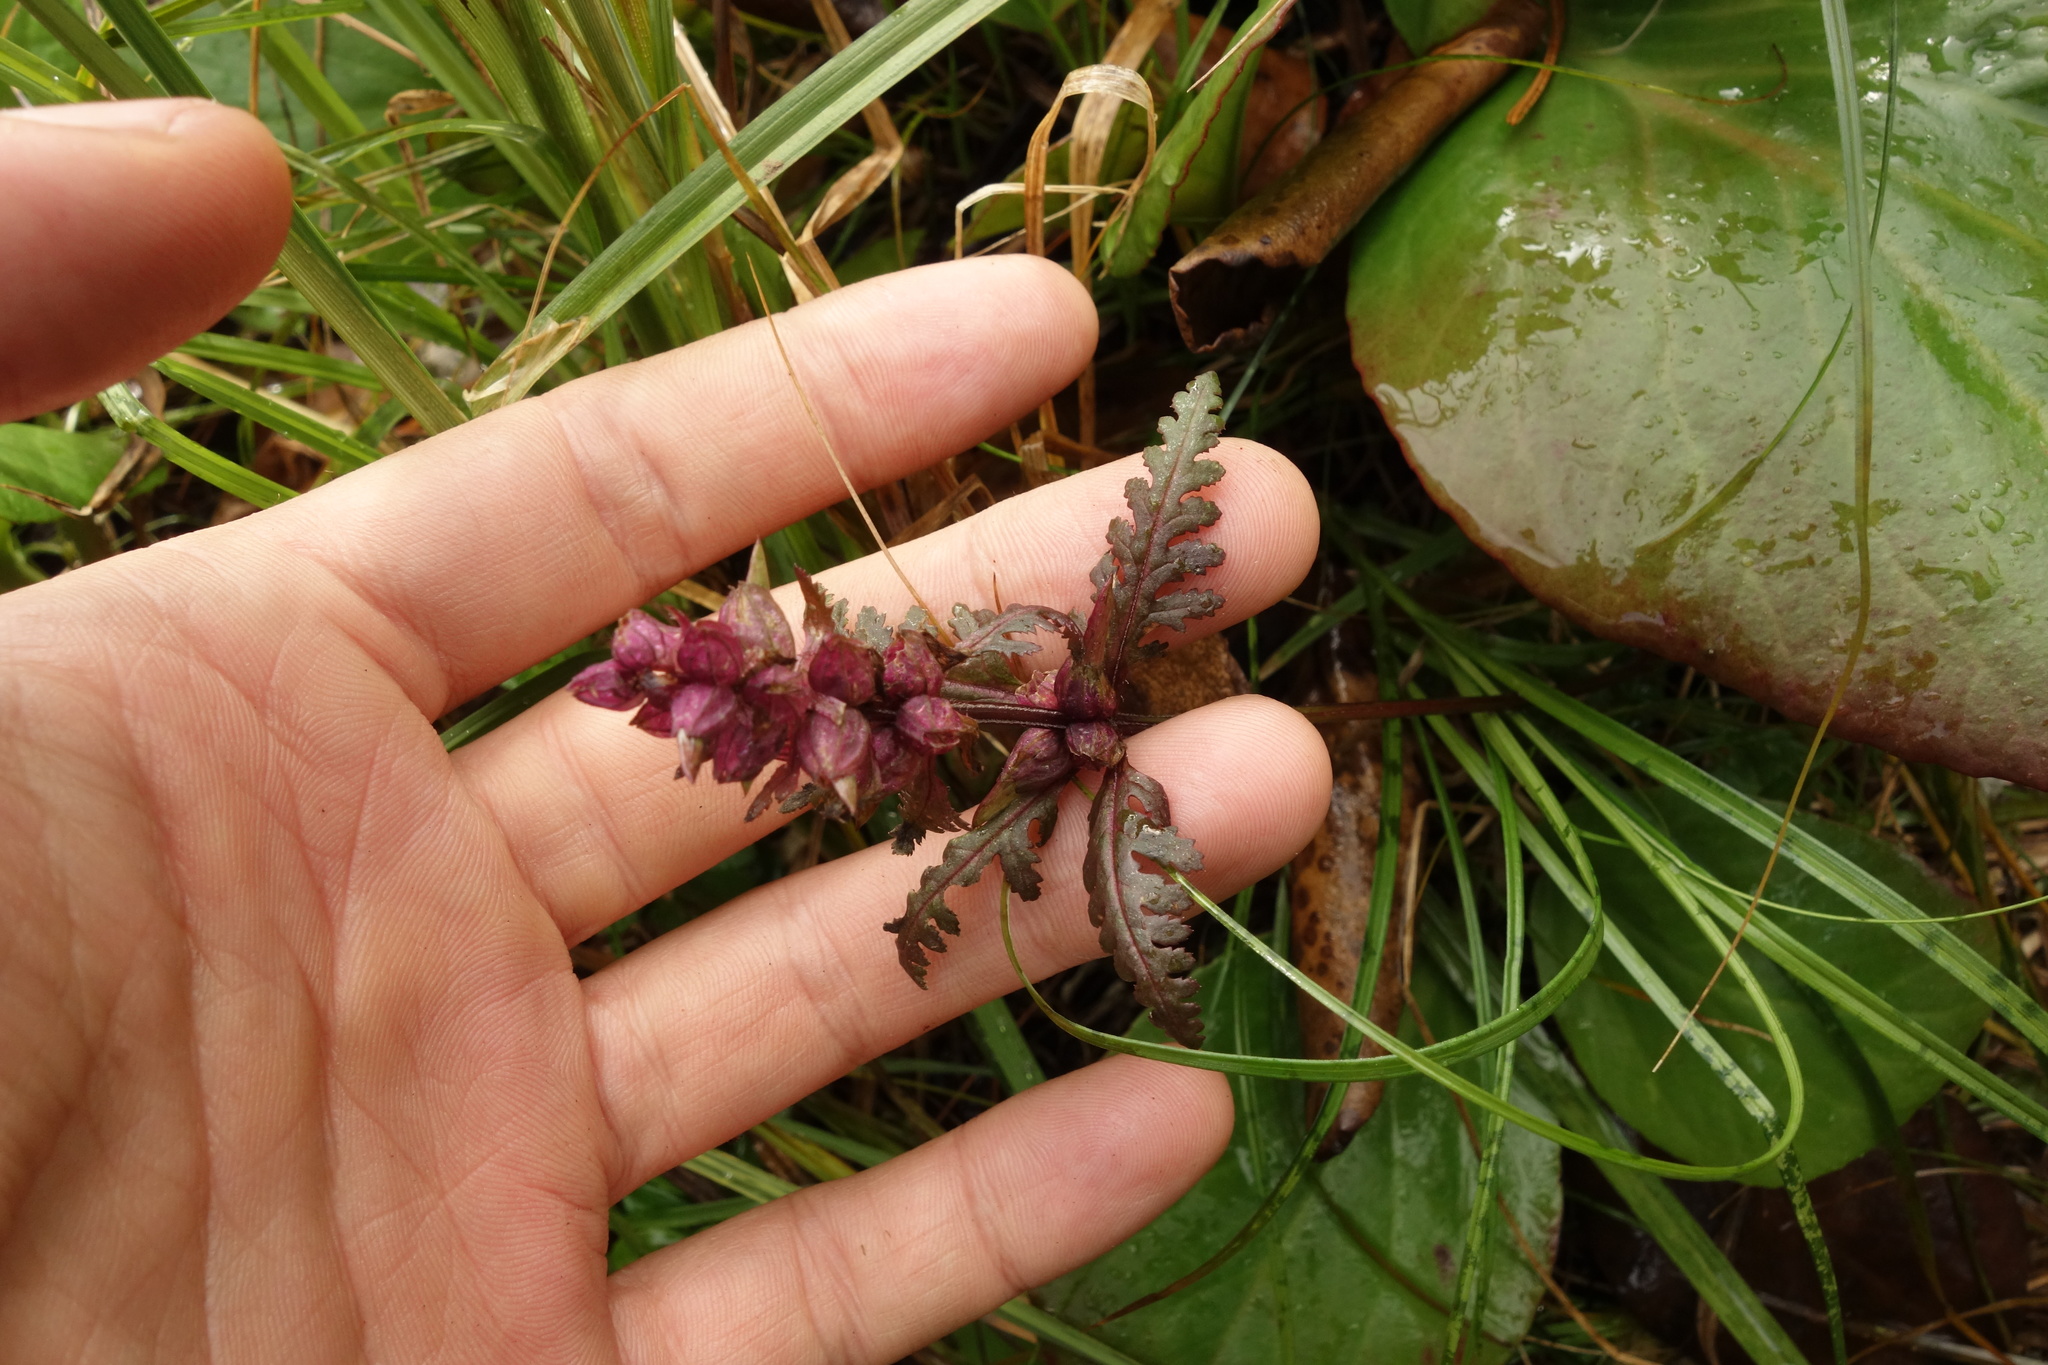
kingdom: Plantae
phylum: Tracheophyta
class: Magnoliopsida
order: Lamiales
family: Orobanchaceae
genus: Pedicularis
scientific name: Pedicularis verticillata
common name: Whorled lousewort
